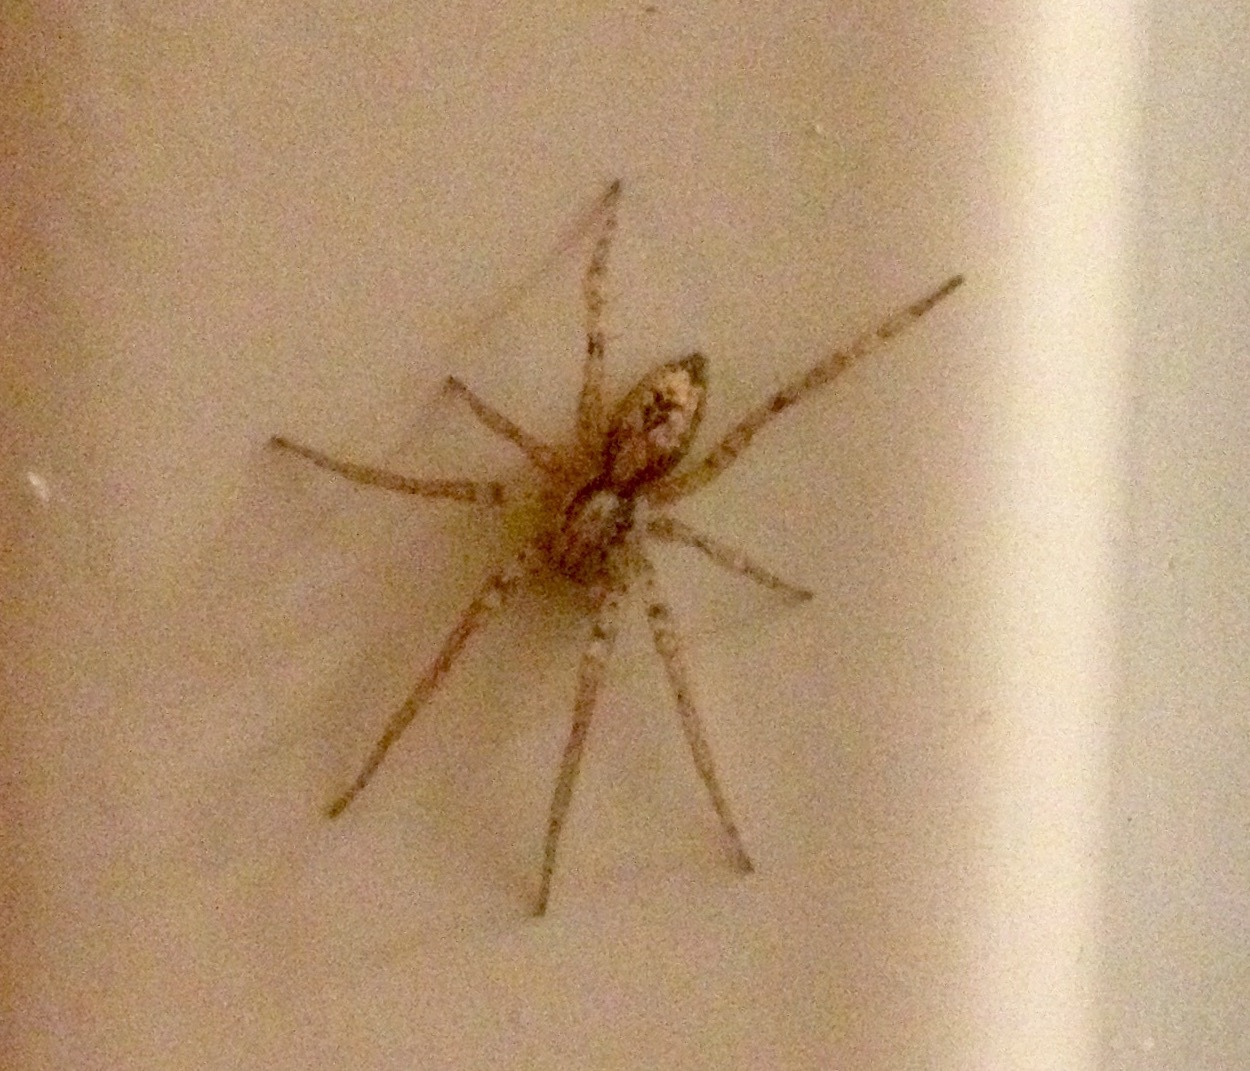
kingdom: Animalia
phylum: Arthropoda
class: Arachnida
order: Araneae
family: Anyphaenidae
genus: Anyphaena
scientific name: Anyphaena accentuata
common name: Buzzing spider
